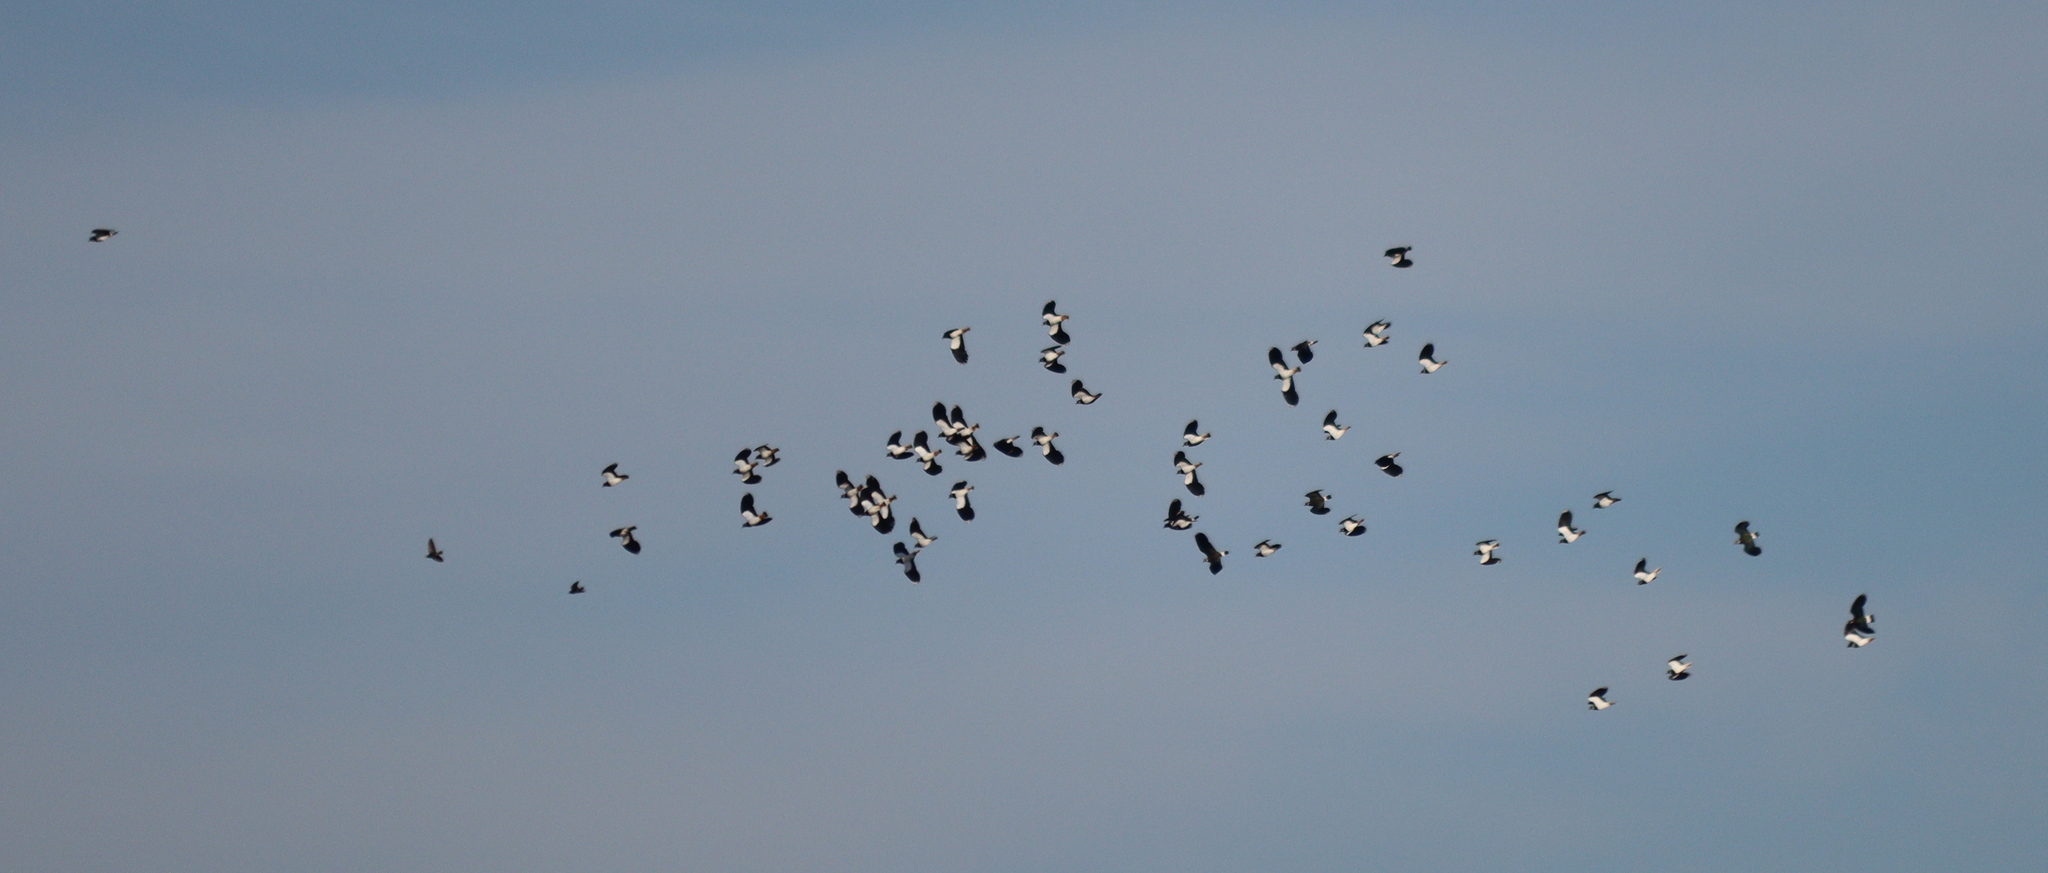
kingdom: Animalia
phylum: Chordata
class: Aves
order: Charadriiformes
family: Charadriidae
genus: Vanellus
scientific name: Vanellus vanellus
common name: Northern lapwing
